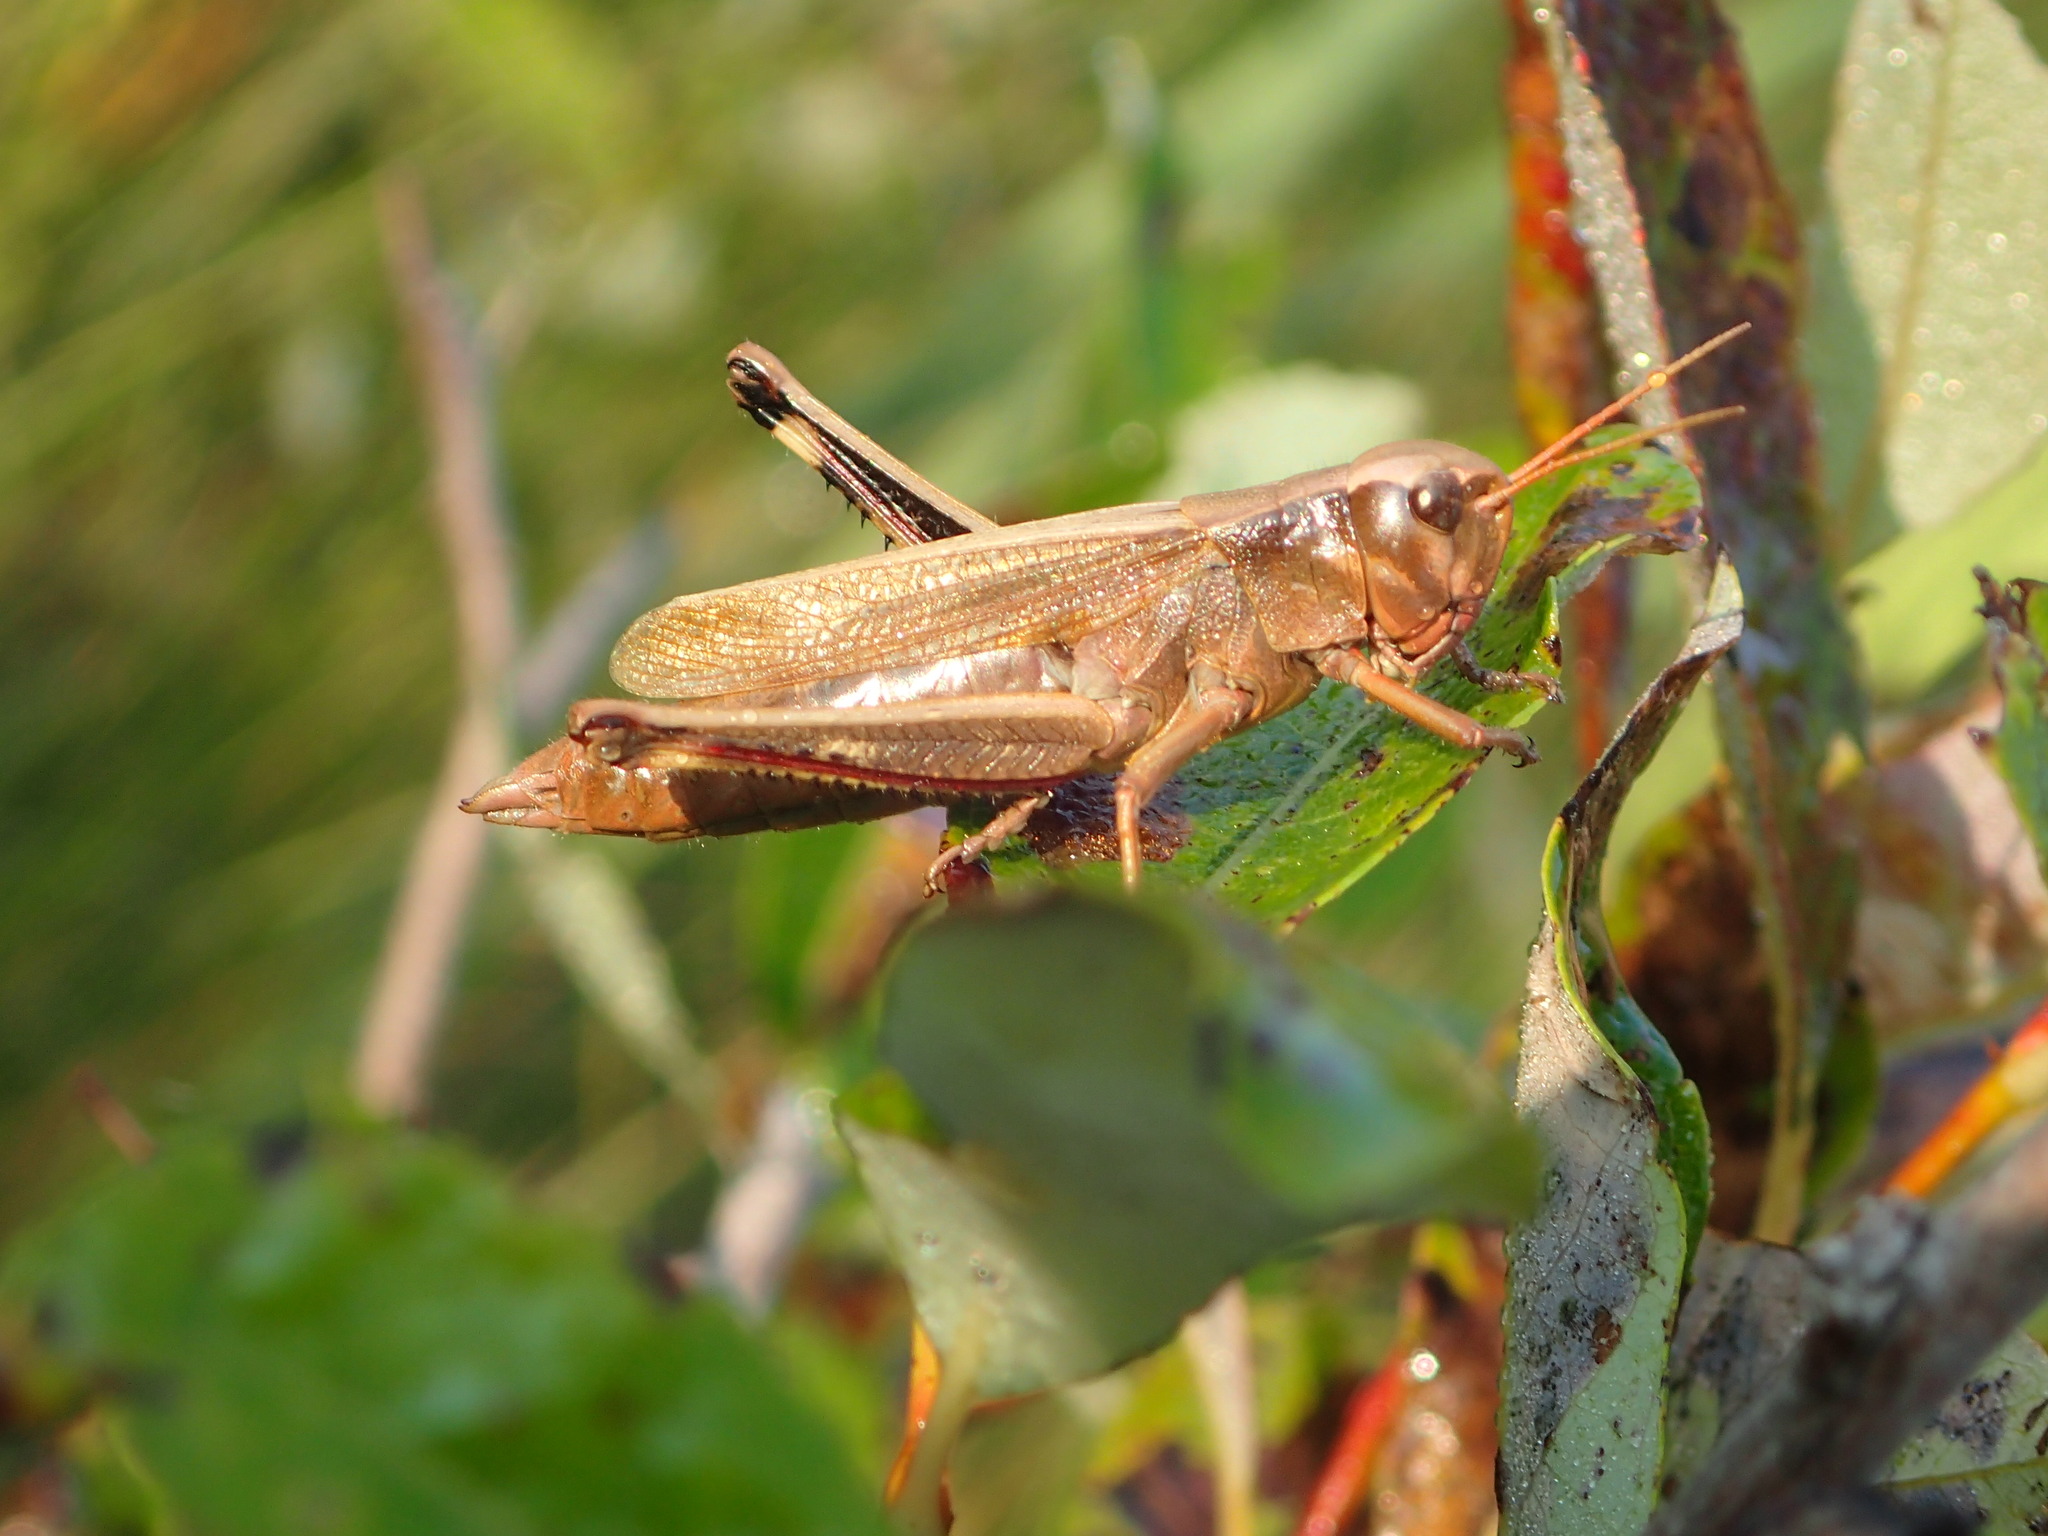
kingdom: Animalia
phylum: Arthropoda
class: Insecta
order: Orthoptera
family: Acrididae
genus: Stethophyma
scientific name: Stethophyma gracile
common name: Graceful sedge grasshopper
